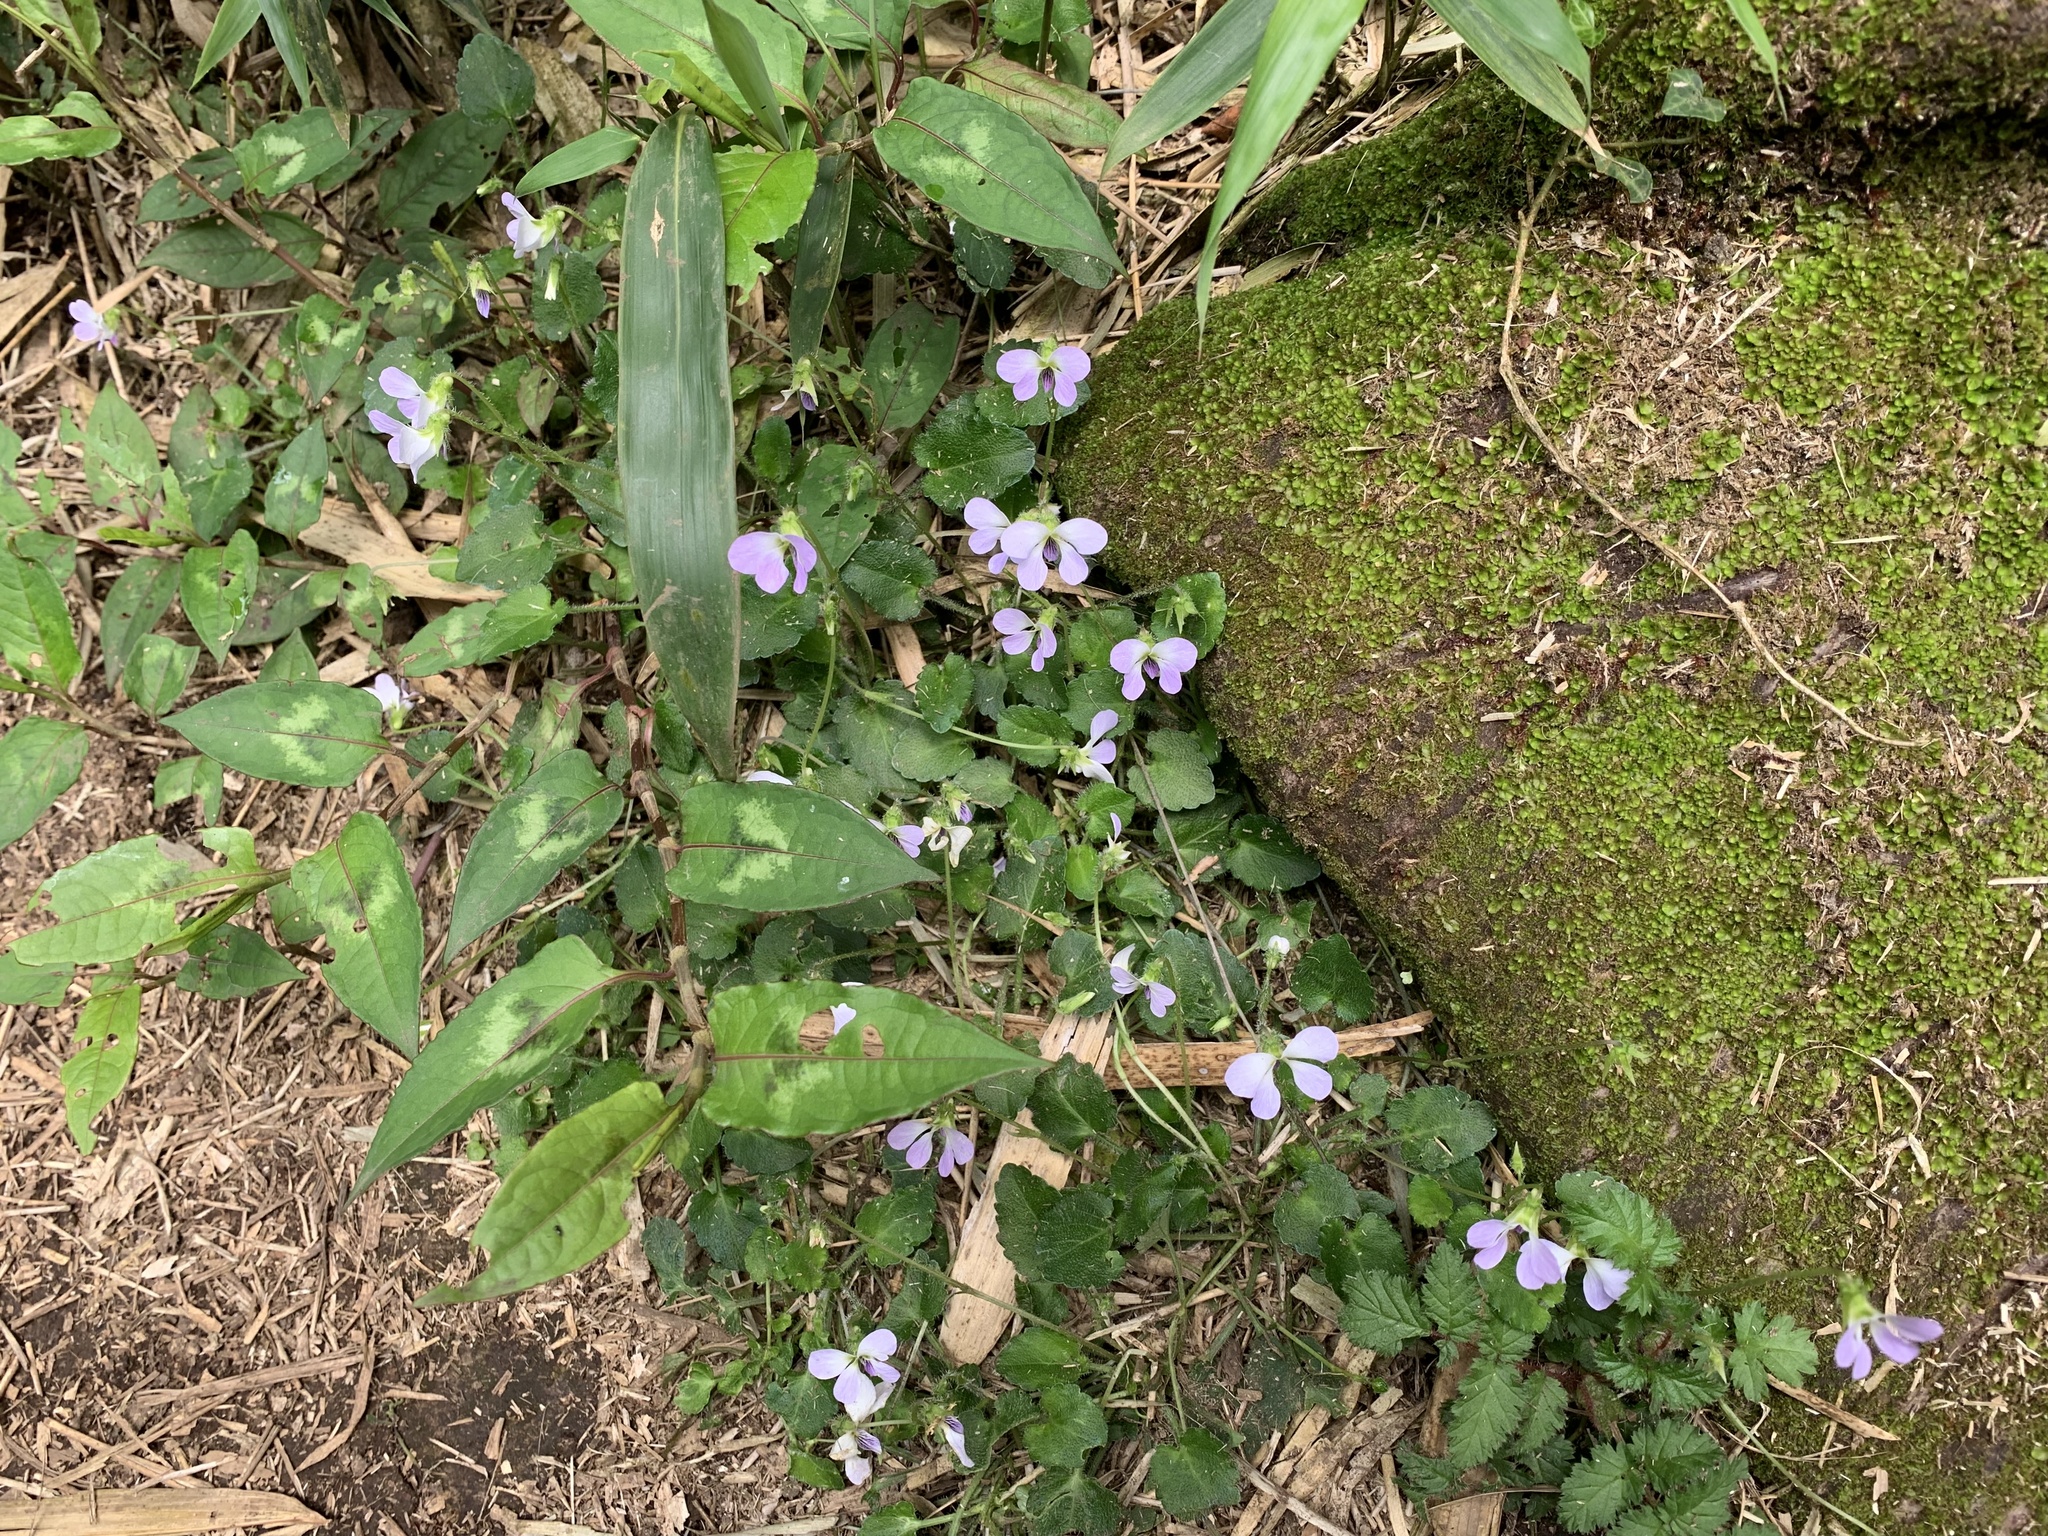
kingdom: Plantae
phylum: Tracheophyta
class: Magnoliopsida
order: Malpighiales
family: Violaceae
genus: Viola
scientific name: Viola nagasawae
